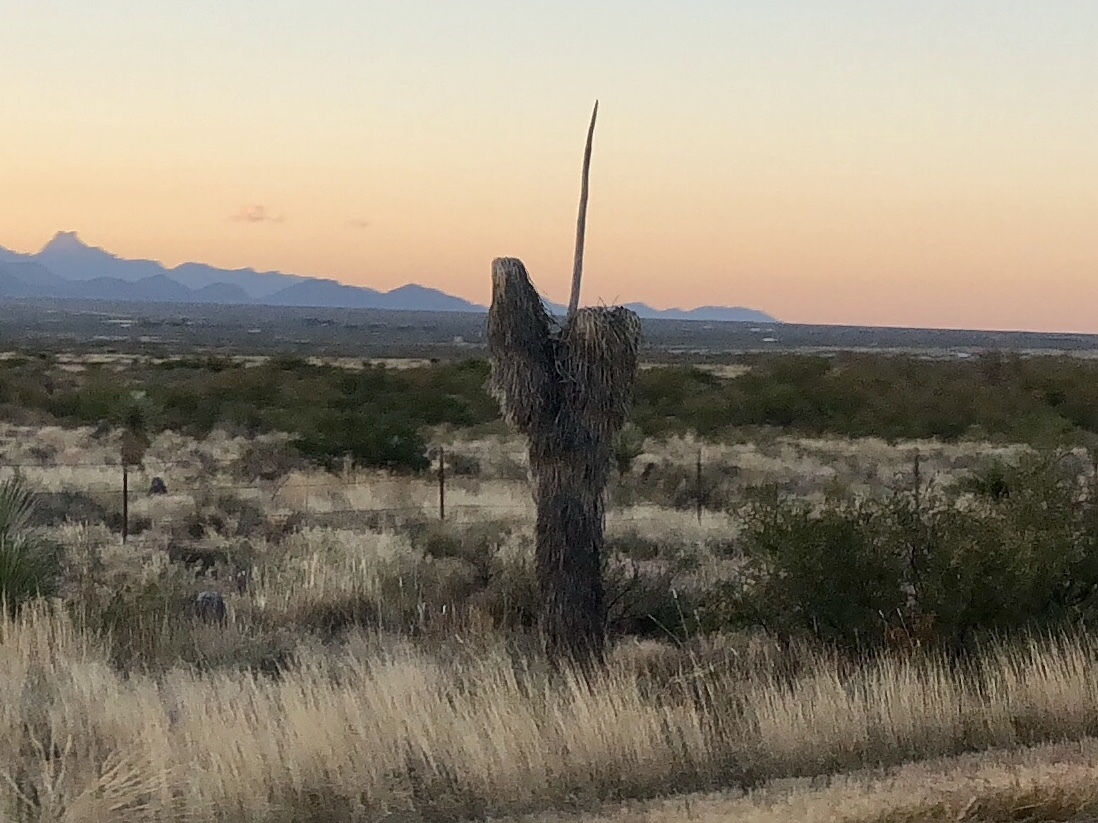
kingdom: Plantae
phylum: Tracheophyta
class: Liliopsida
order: Asparagales
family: Asparagaceae
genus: Yucca
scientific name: Yucca elata
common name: Palmella
